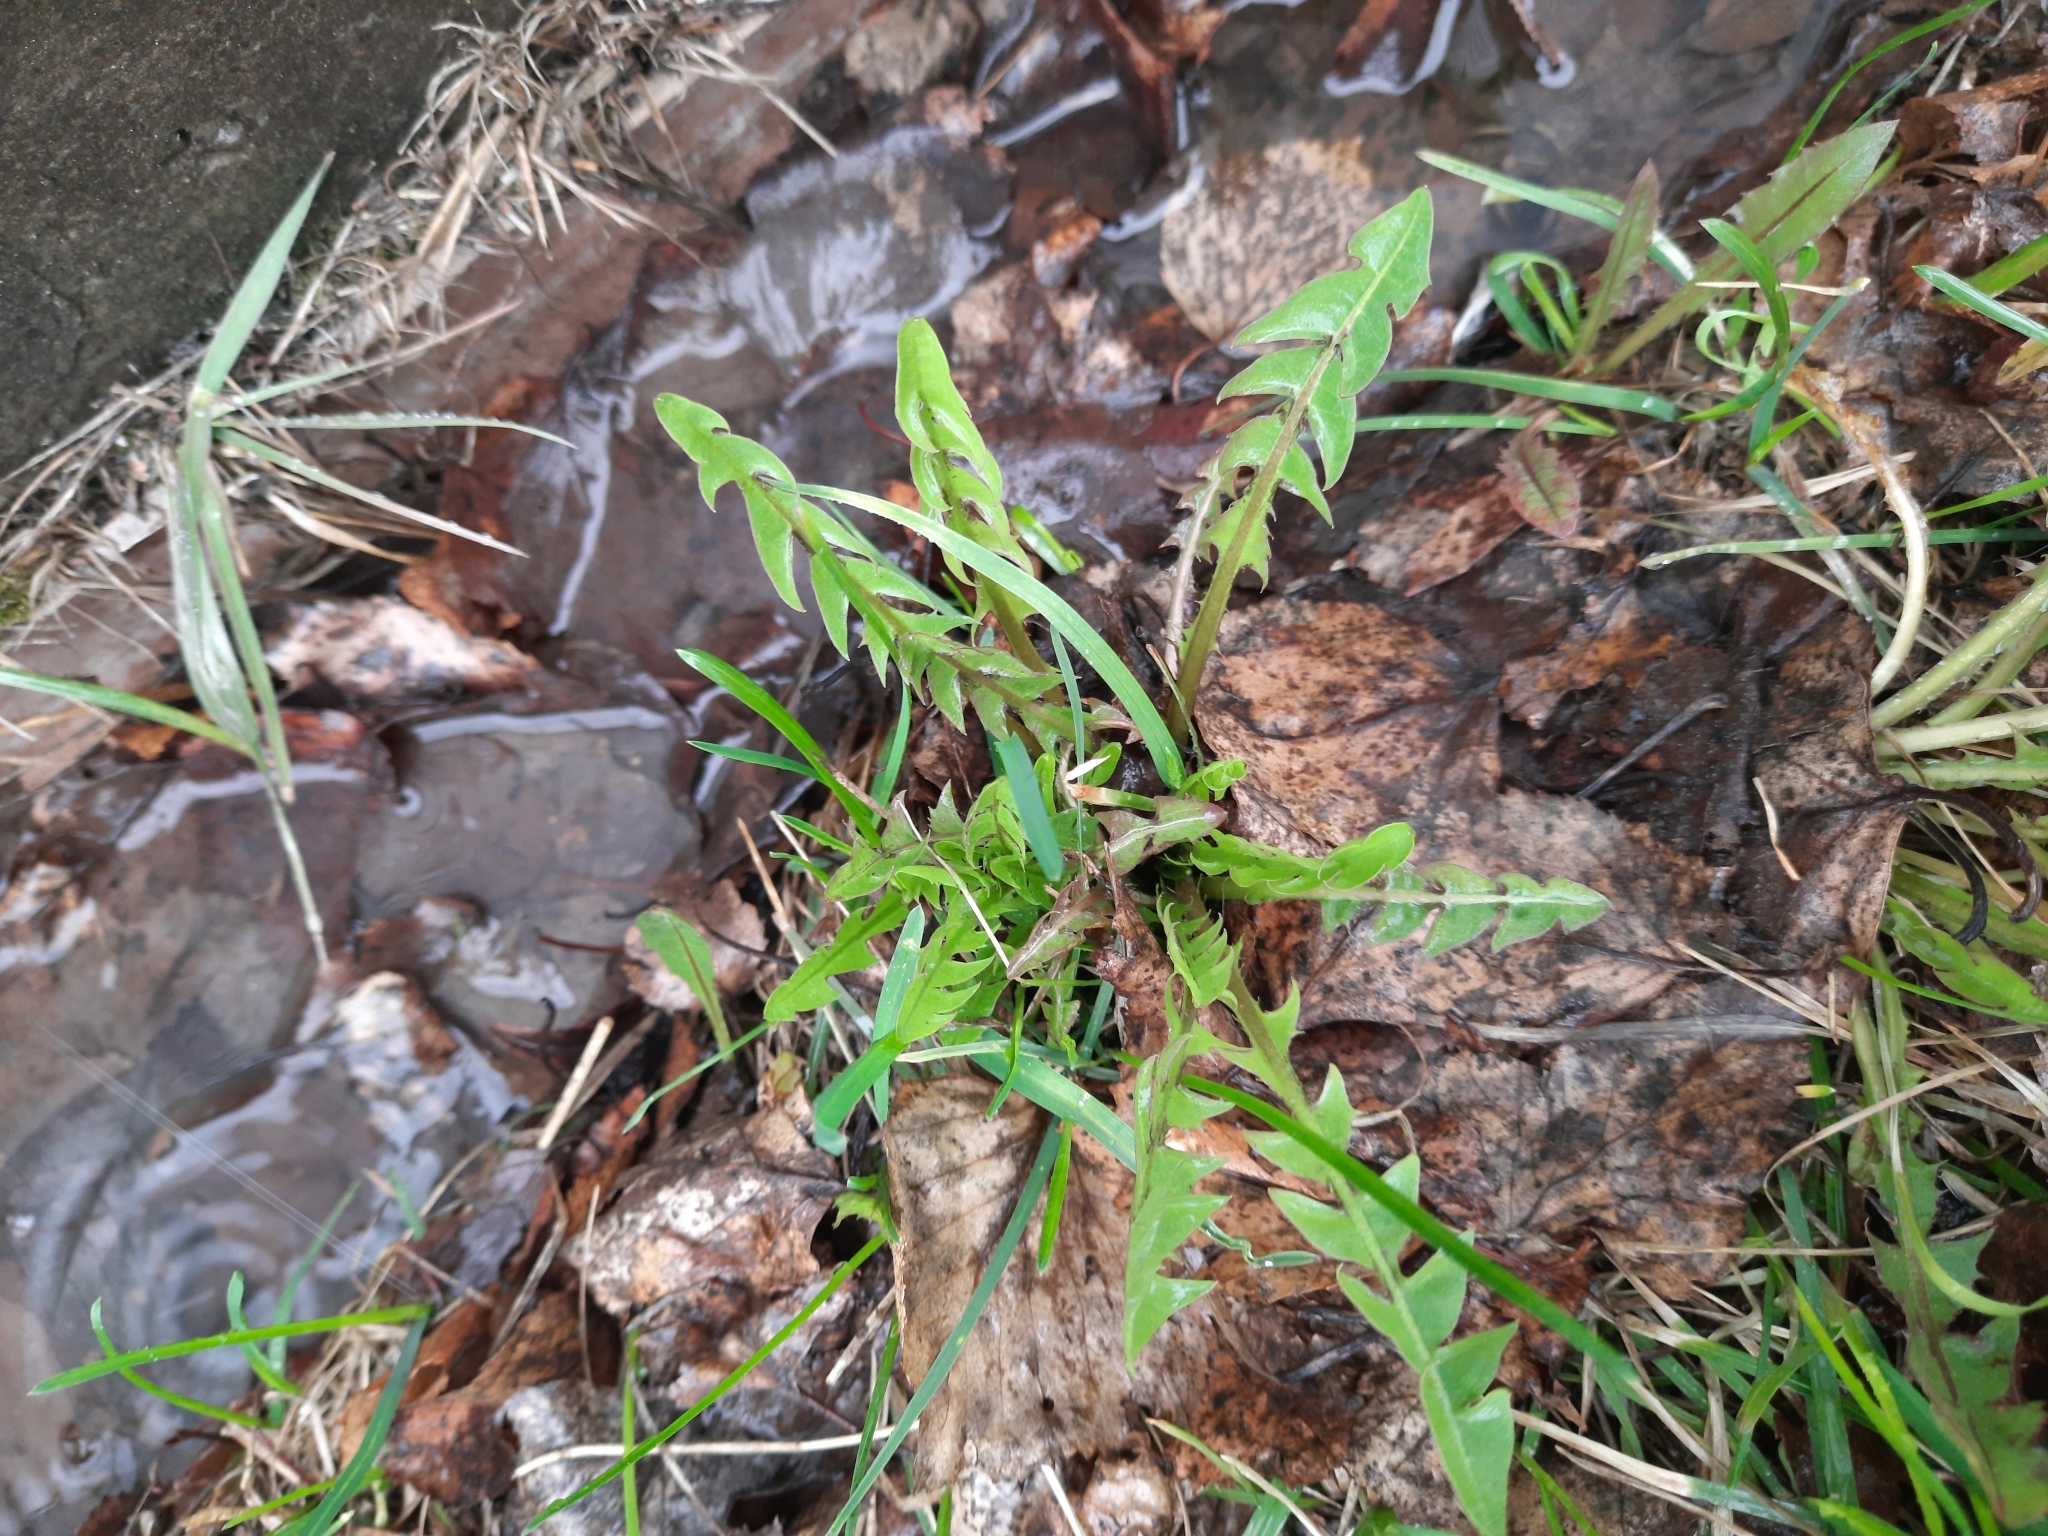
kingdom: Plantae
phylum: Tracheophyta
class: Magnoliopsida
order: Asterales
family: Asteraceae
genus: Taraxacum
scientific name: Taraxacum officinale
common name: Common dandelion
